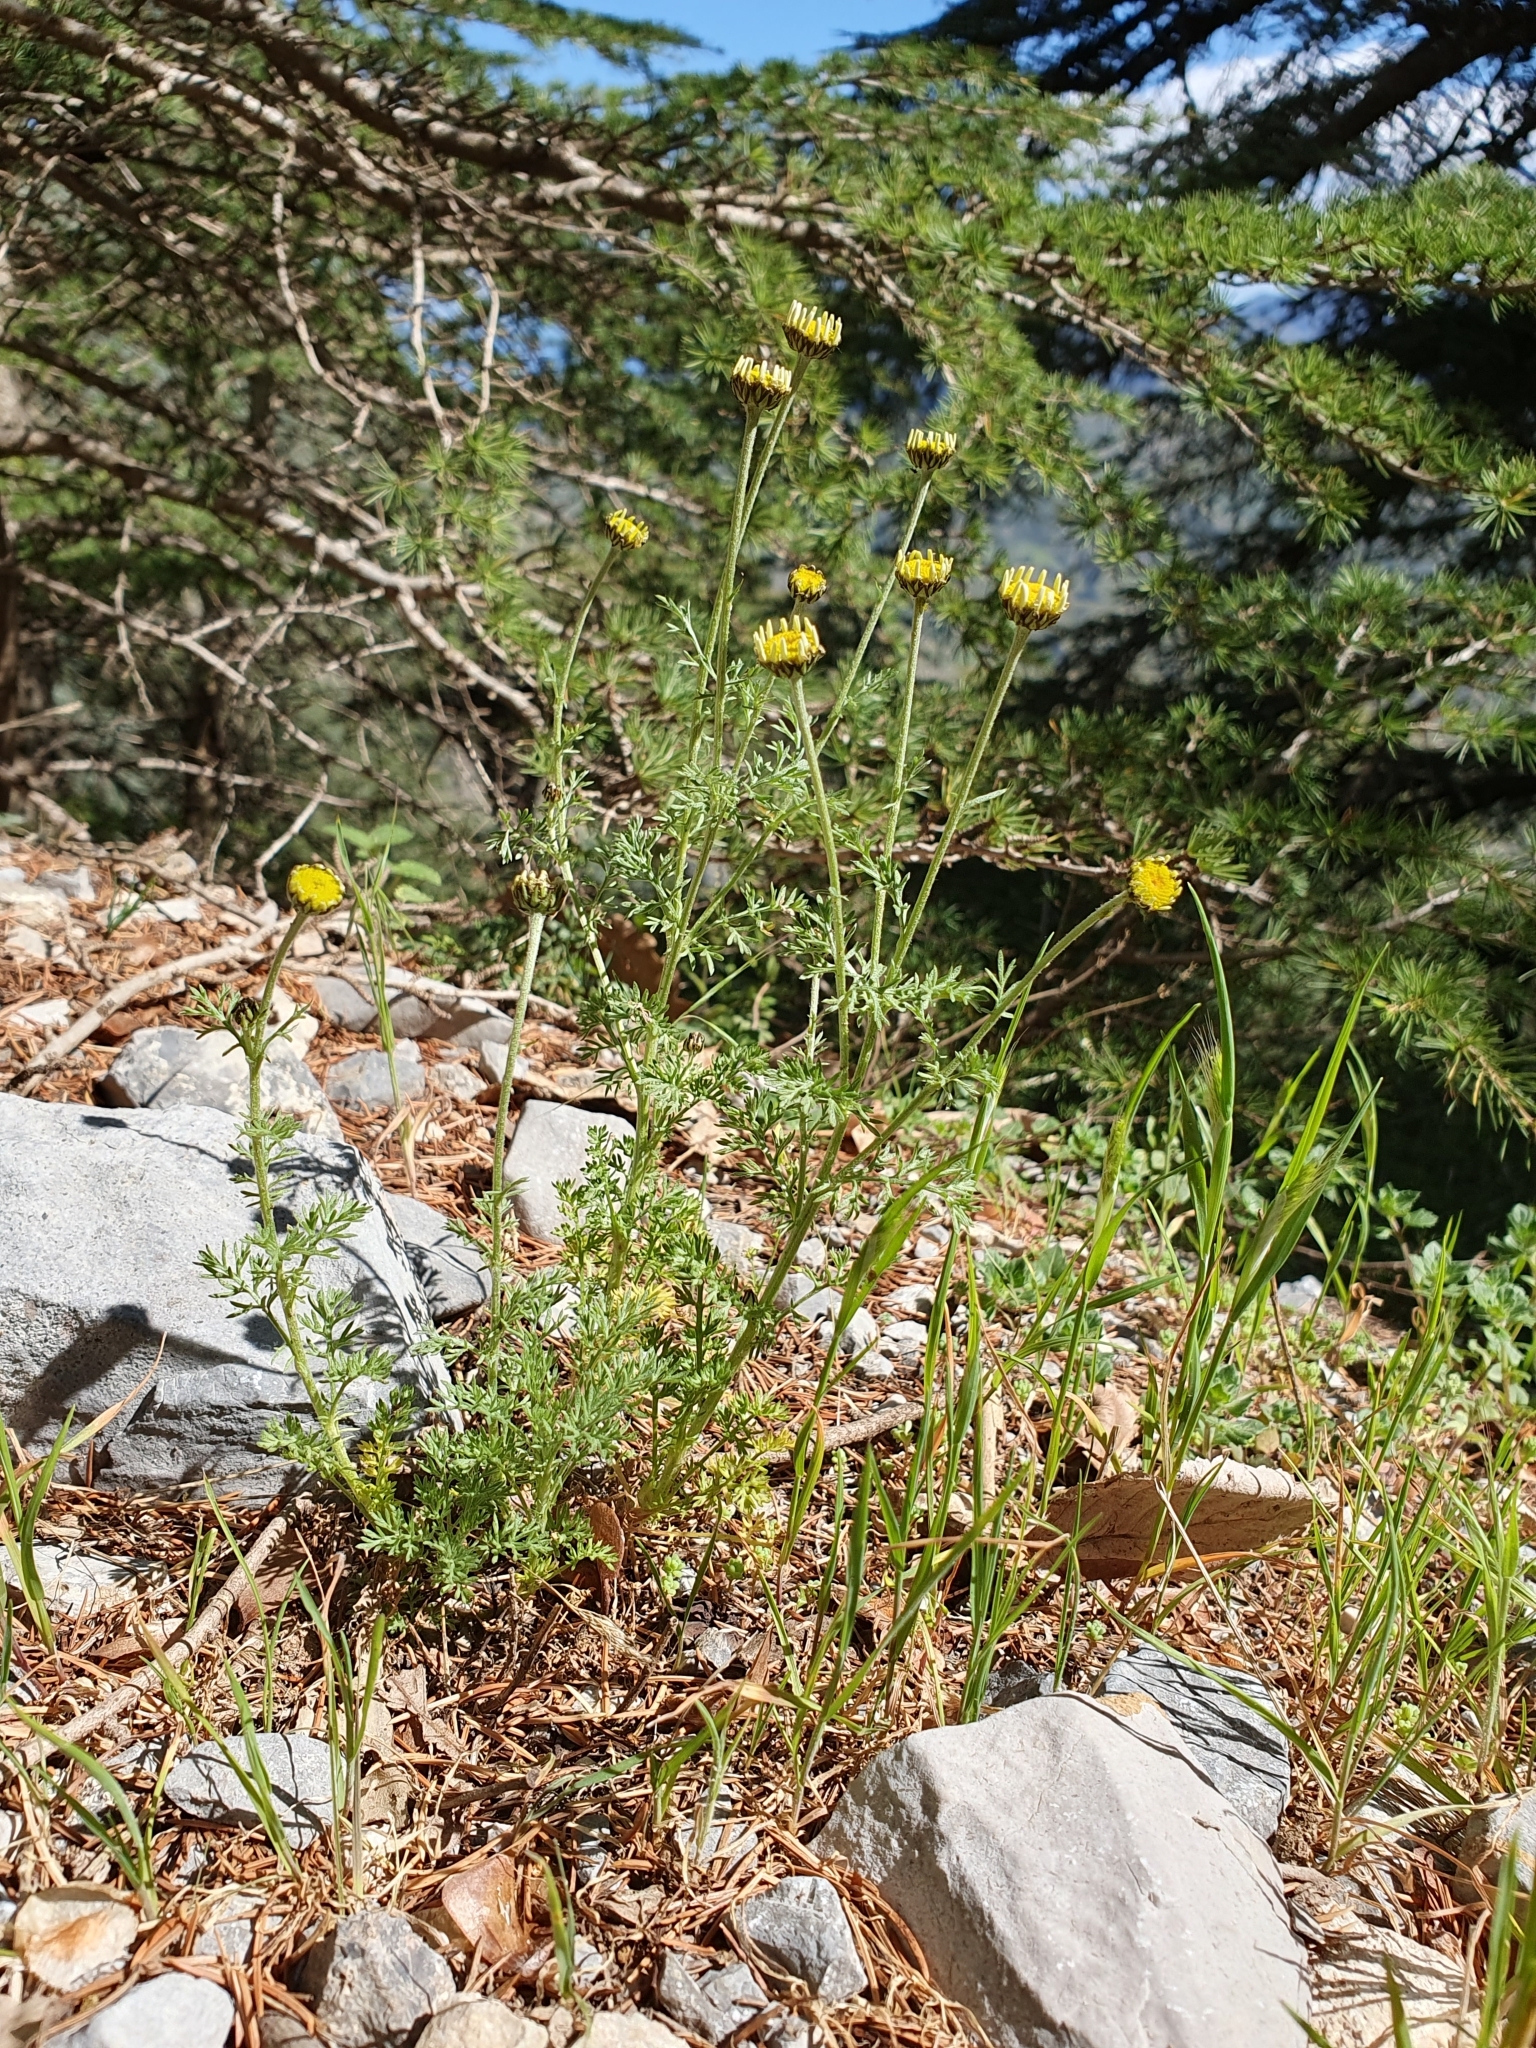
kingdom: Plantae
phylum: Tracheophyta
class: Magnoliopsida
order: Asterales
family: Asteraceae
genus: Anthemis
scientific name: Anthemis pedunculata
